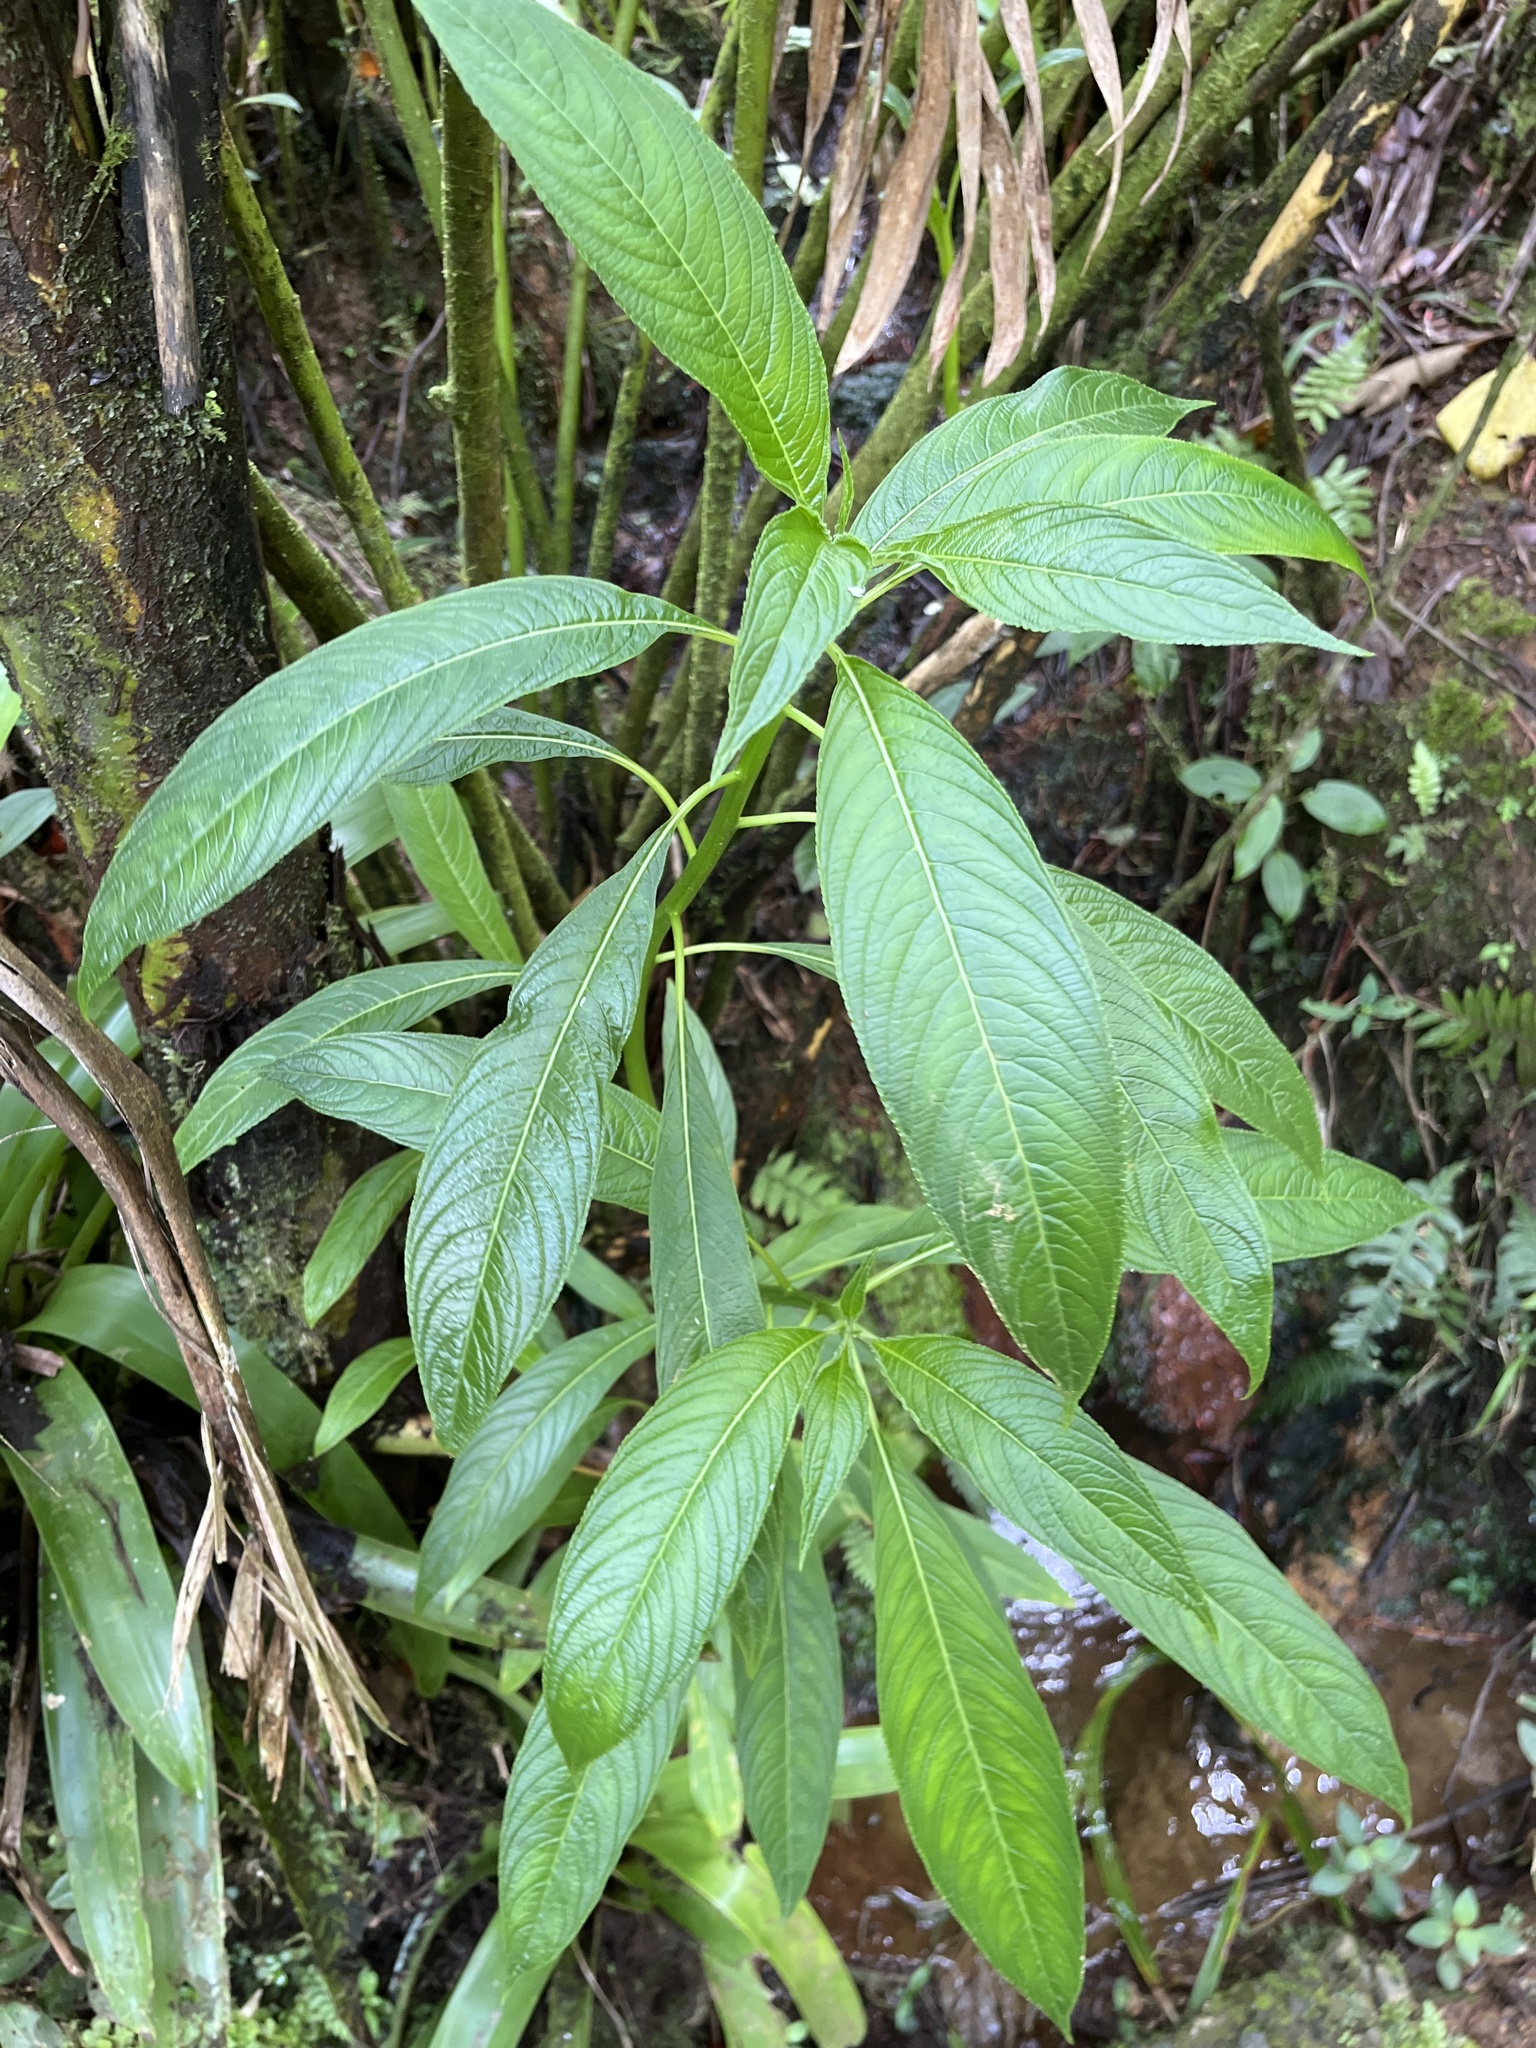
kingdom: Plantae
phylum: Tracheophyta
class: Magnoliopsida
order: Asterales
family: Campanulaceae
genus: Lobelia
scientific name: Lobelia portoricensis
